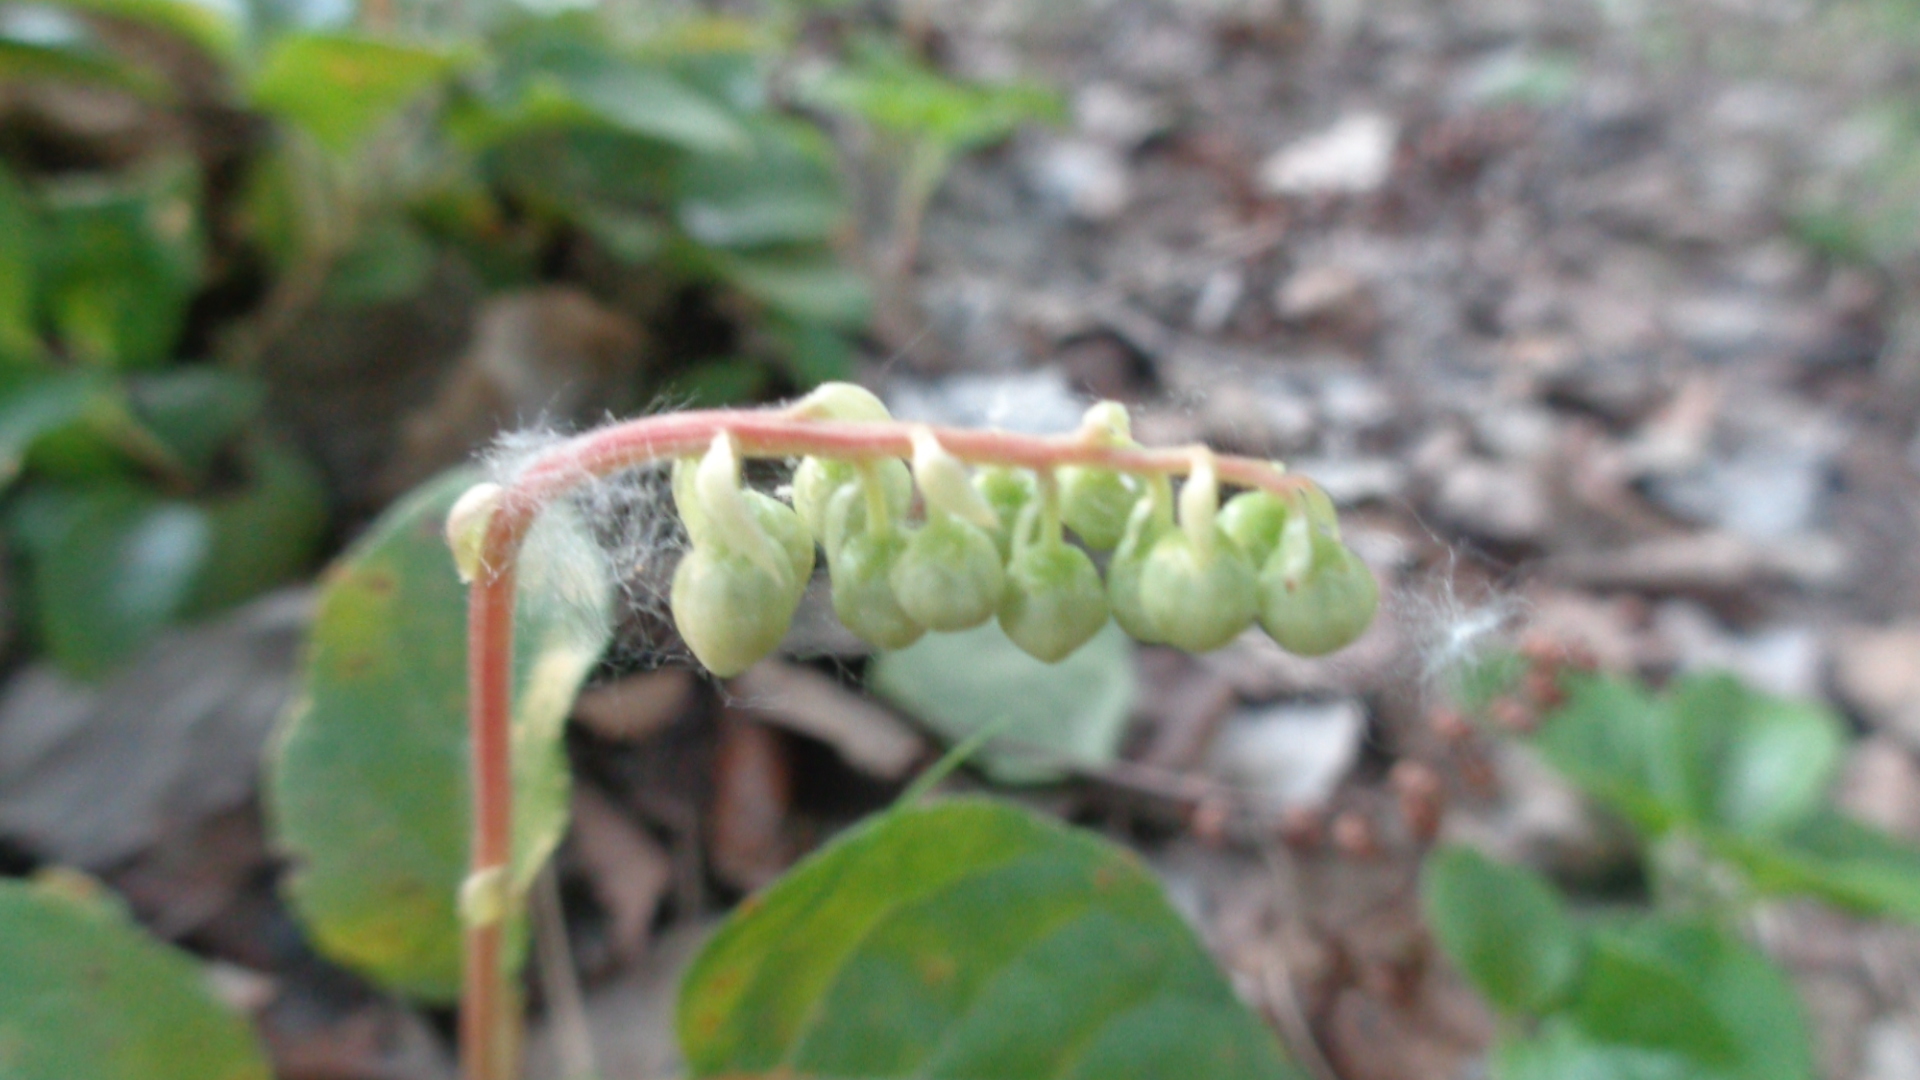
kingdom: Plantae
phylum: Tracheophyta
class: Magnoliopsida
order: Ericales
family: Ericaceae
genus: Orthilia
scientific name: Orthilia secunda
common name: One-sided orthilia
